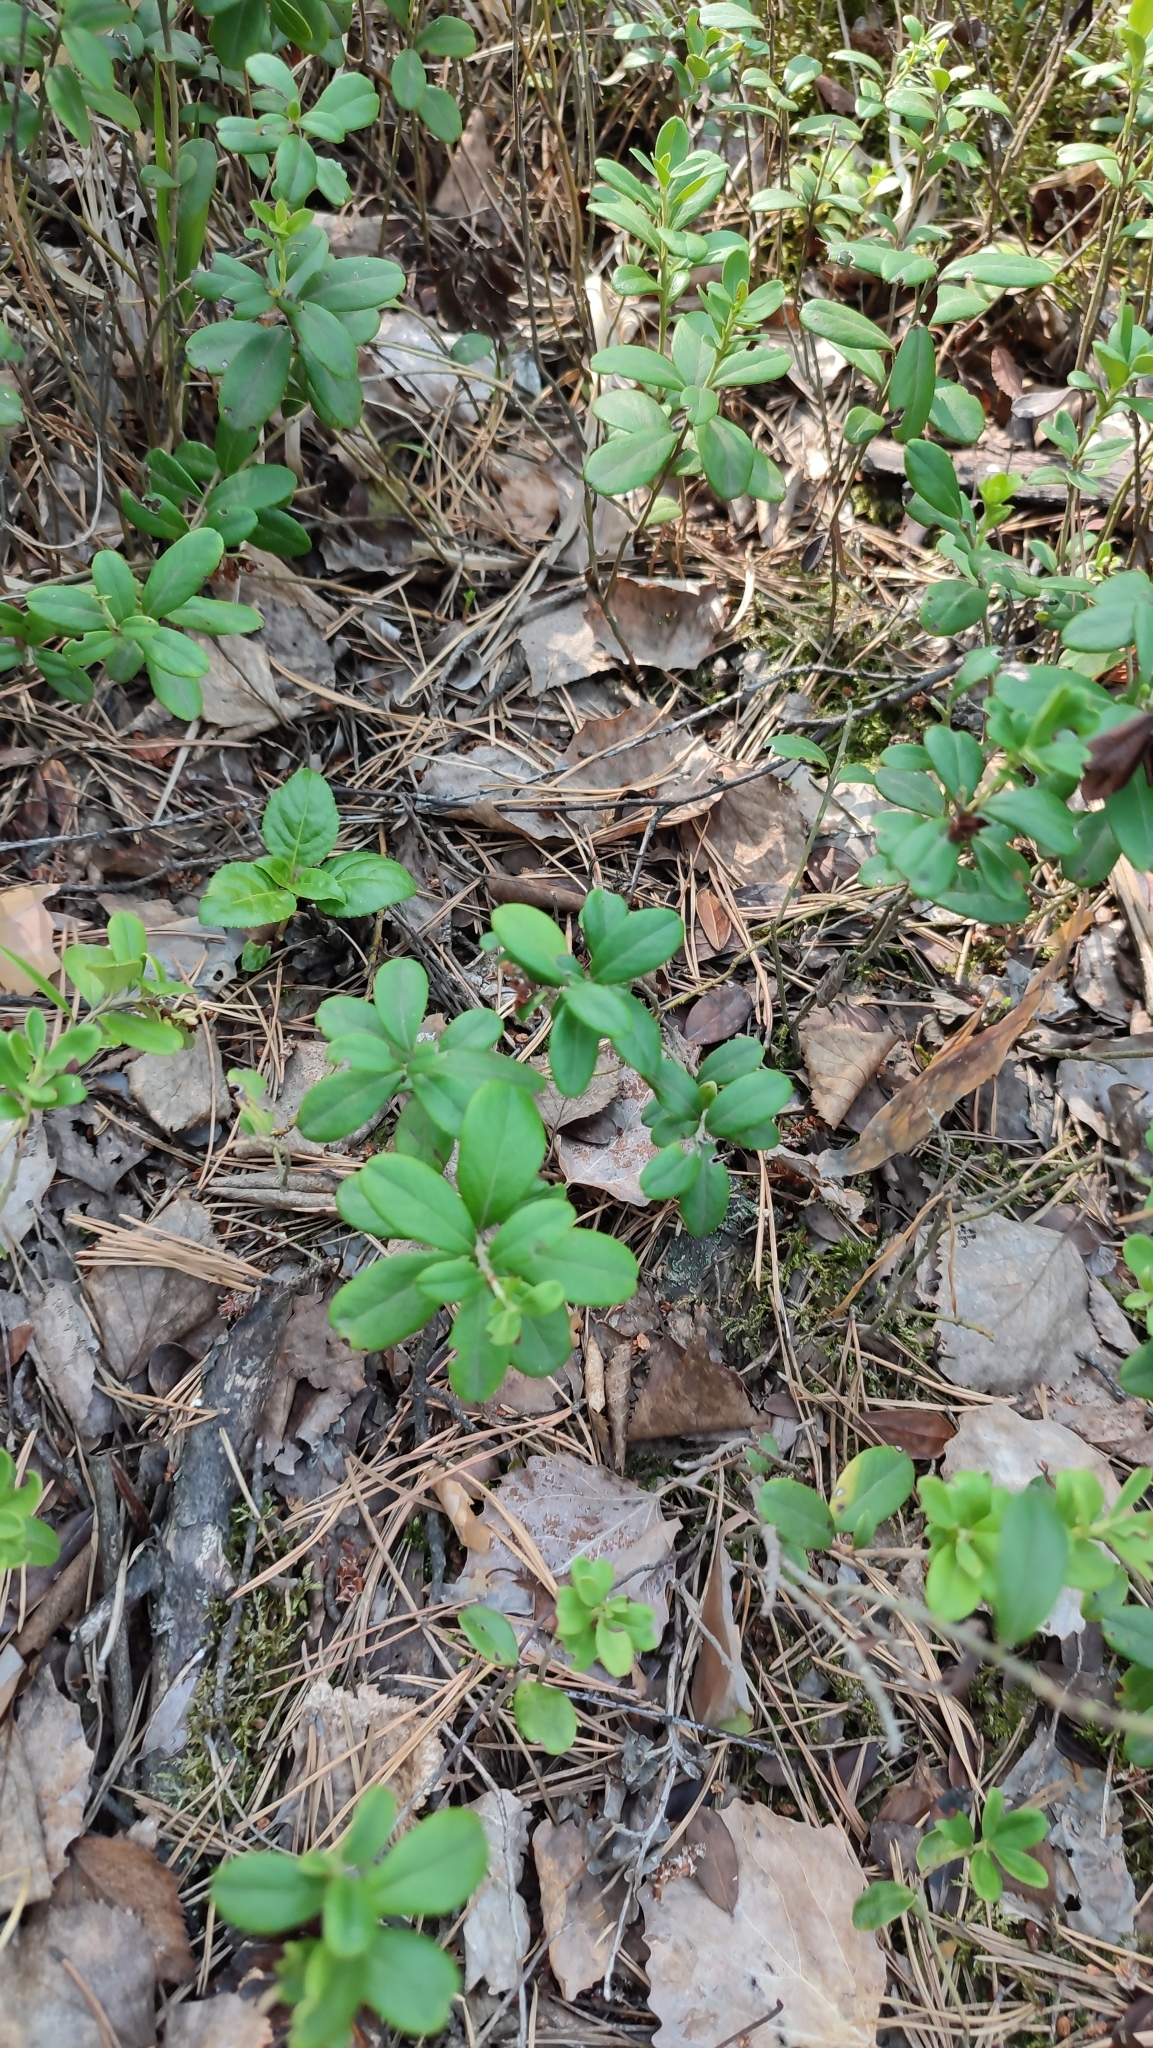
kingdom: Plantae
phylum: Tracheophyta
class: Magnoliopsida
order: Ericales
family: Ericaceae
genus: Vaccinium
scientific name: Vaccinium vitis-idaea
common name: Cowberry
